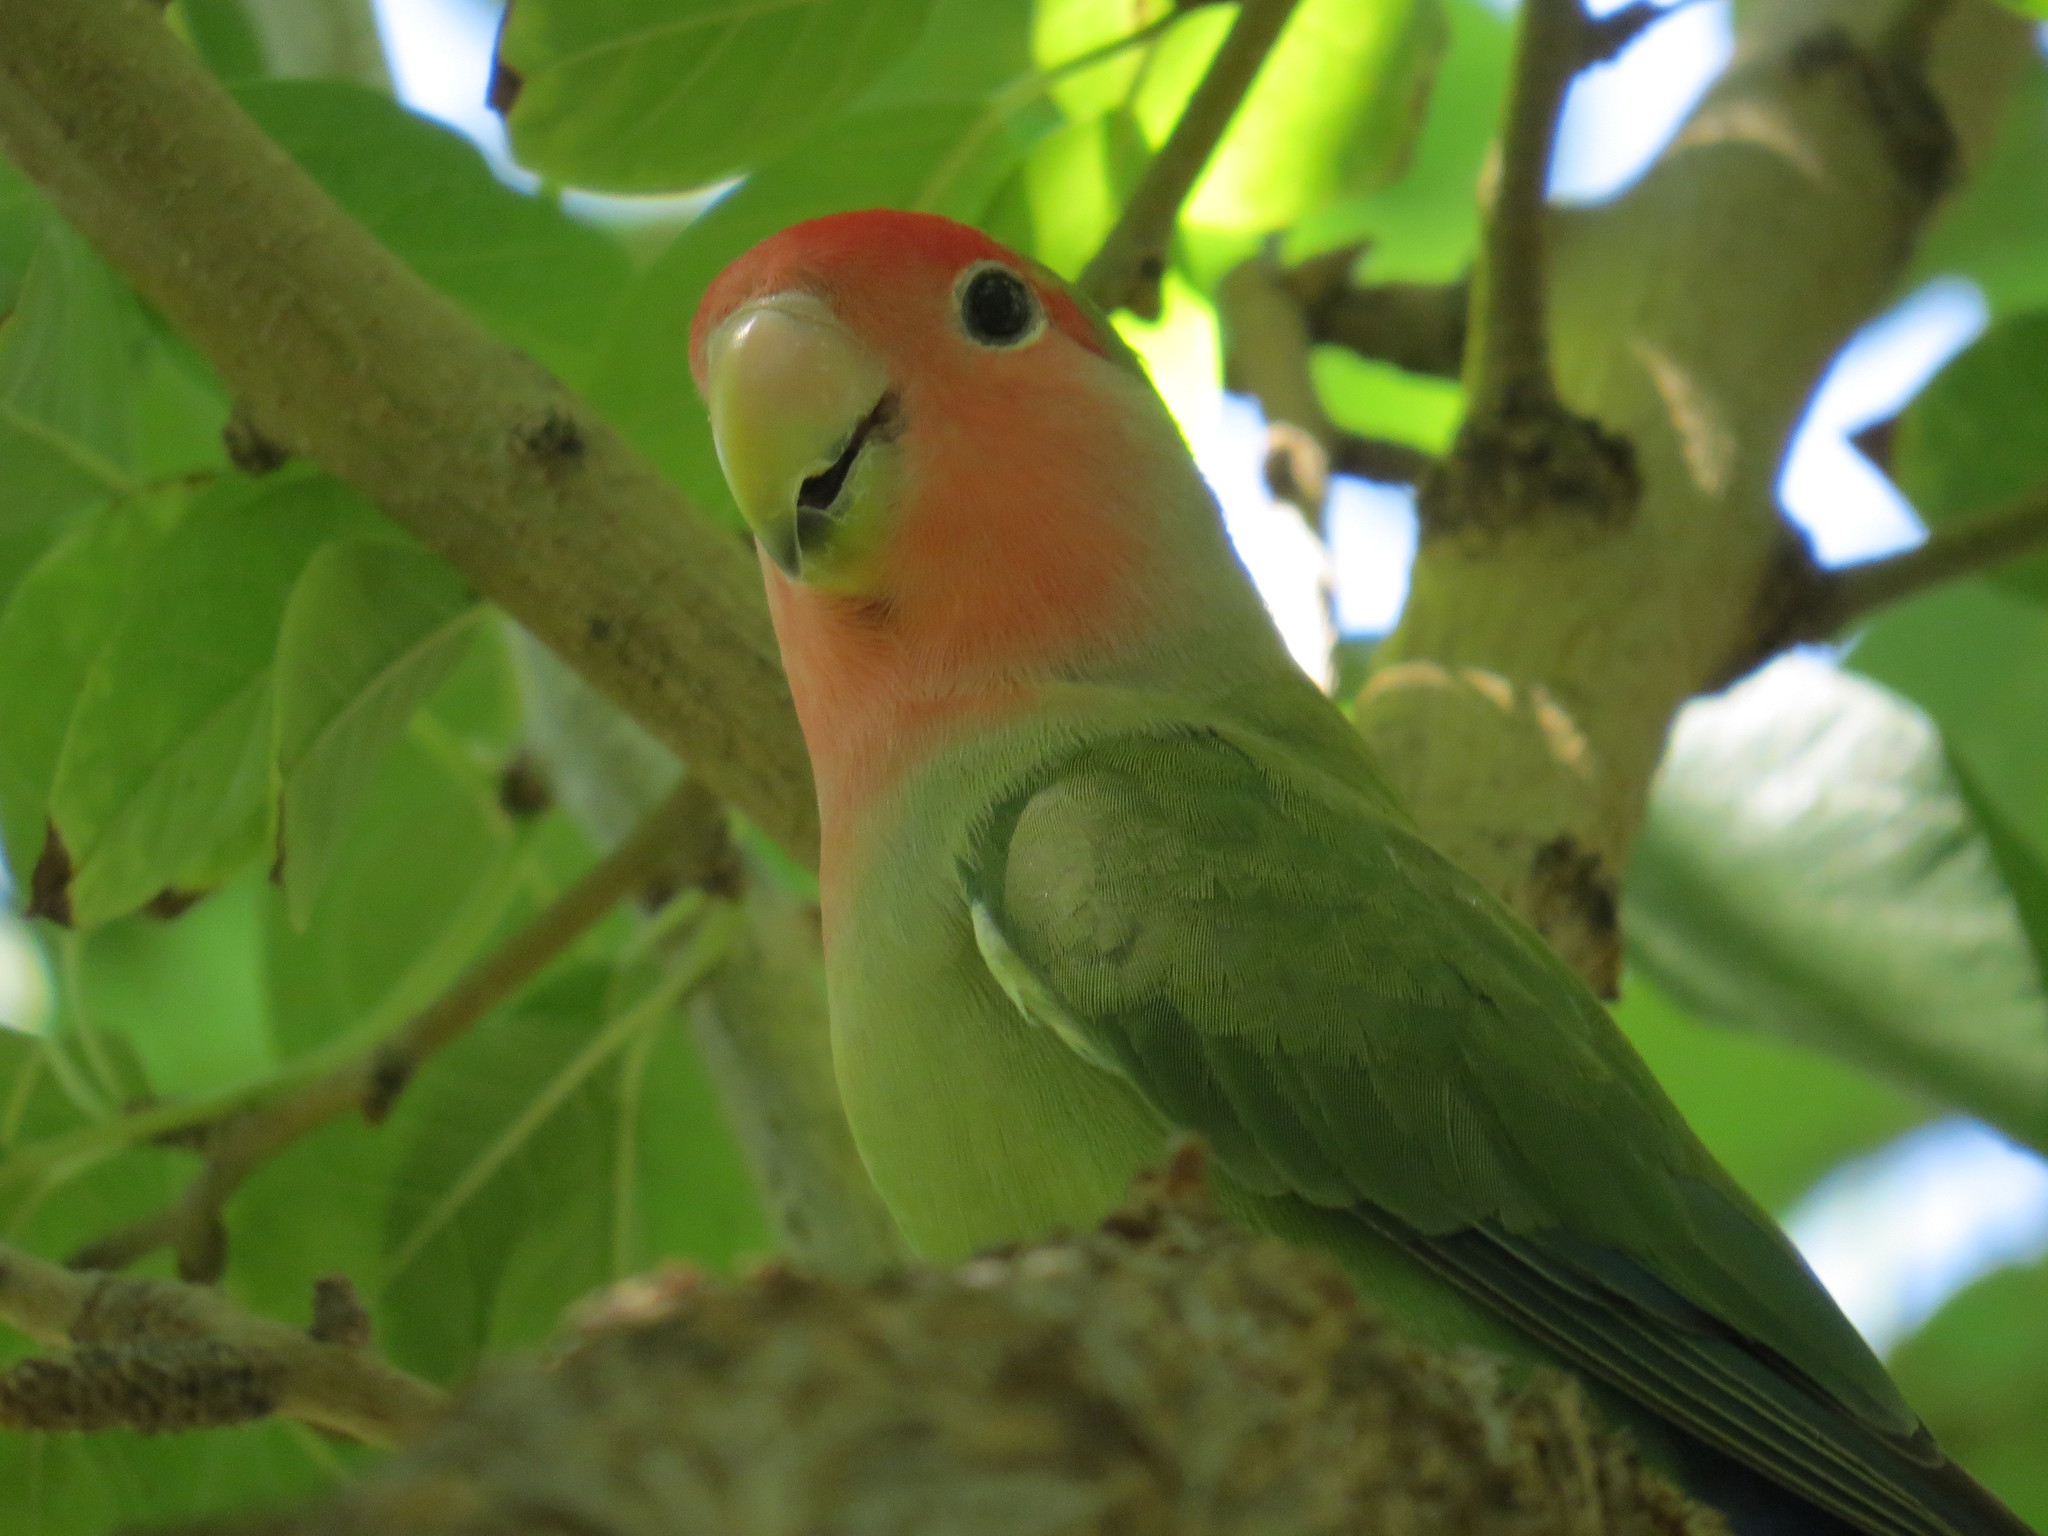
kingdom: Animalia
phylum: Chordata
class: Aves
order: Psittaciformes
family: Psittacidae
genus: Agapornis
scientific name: Agapornis roseicollis
